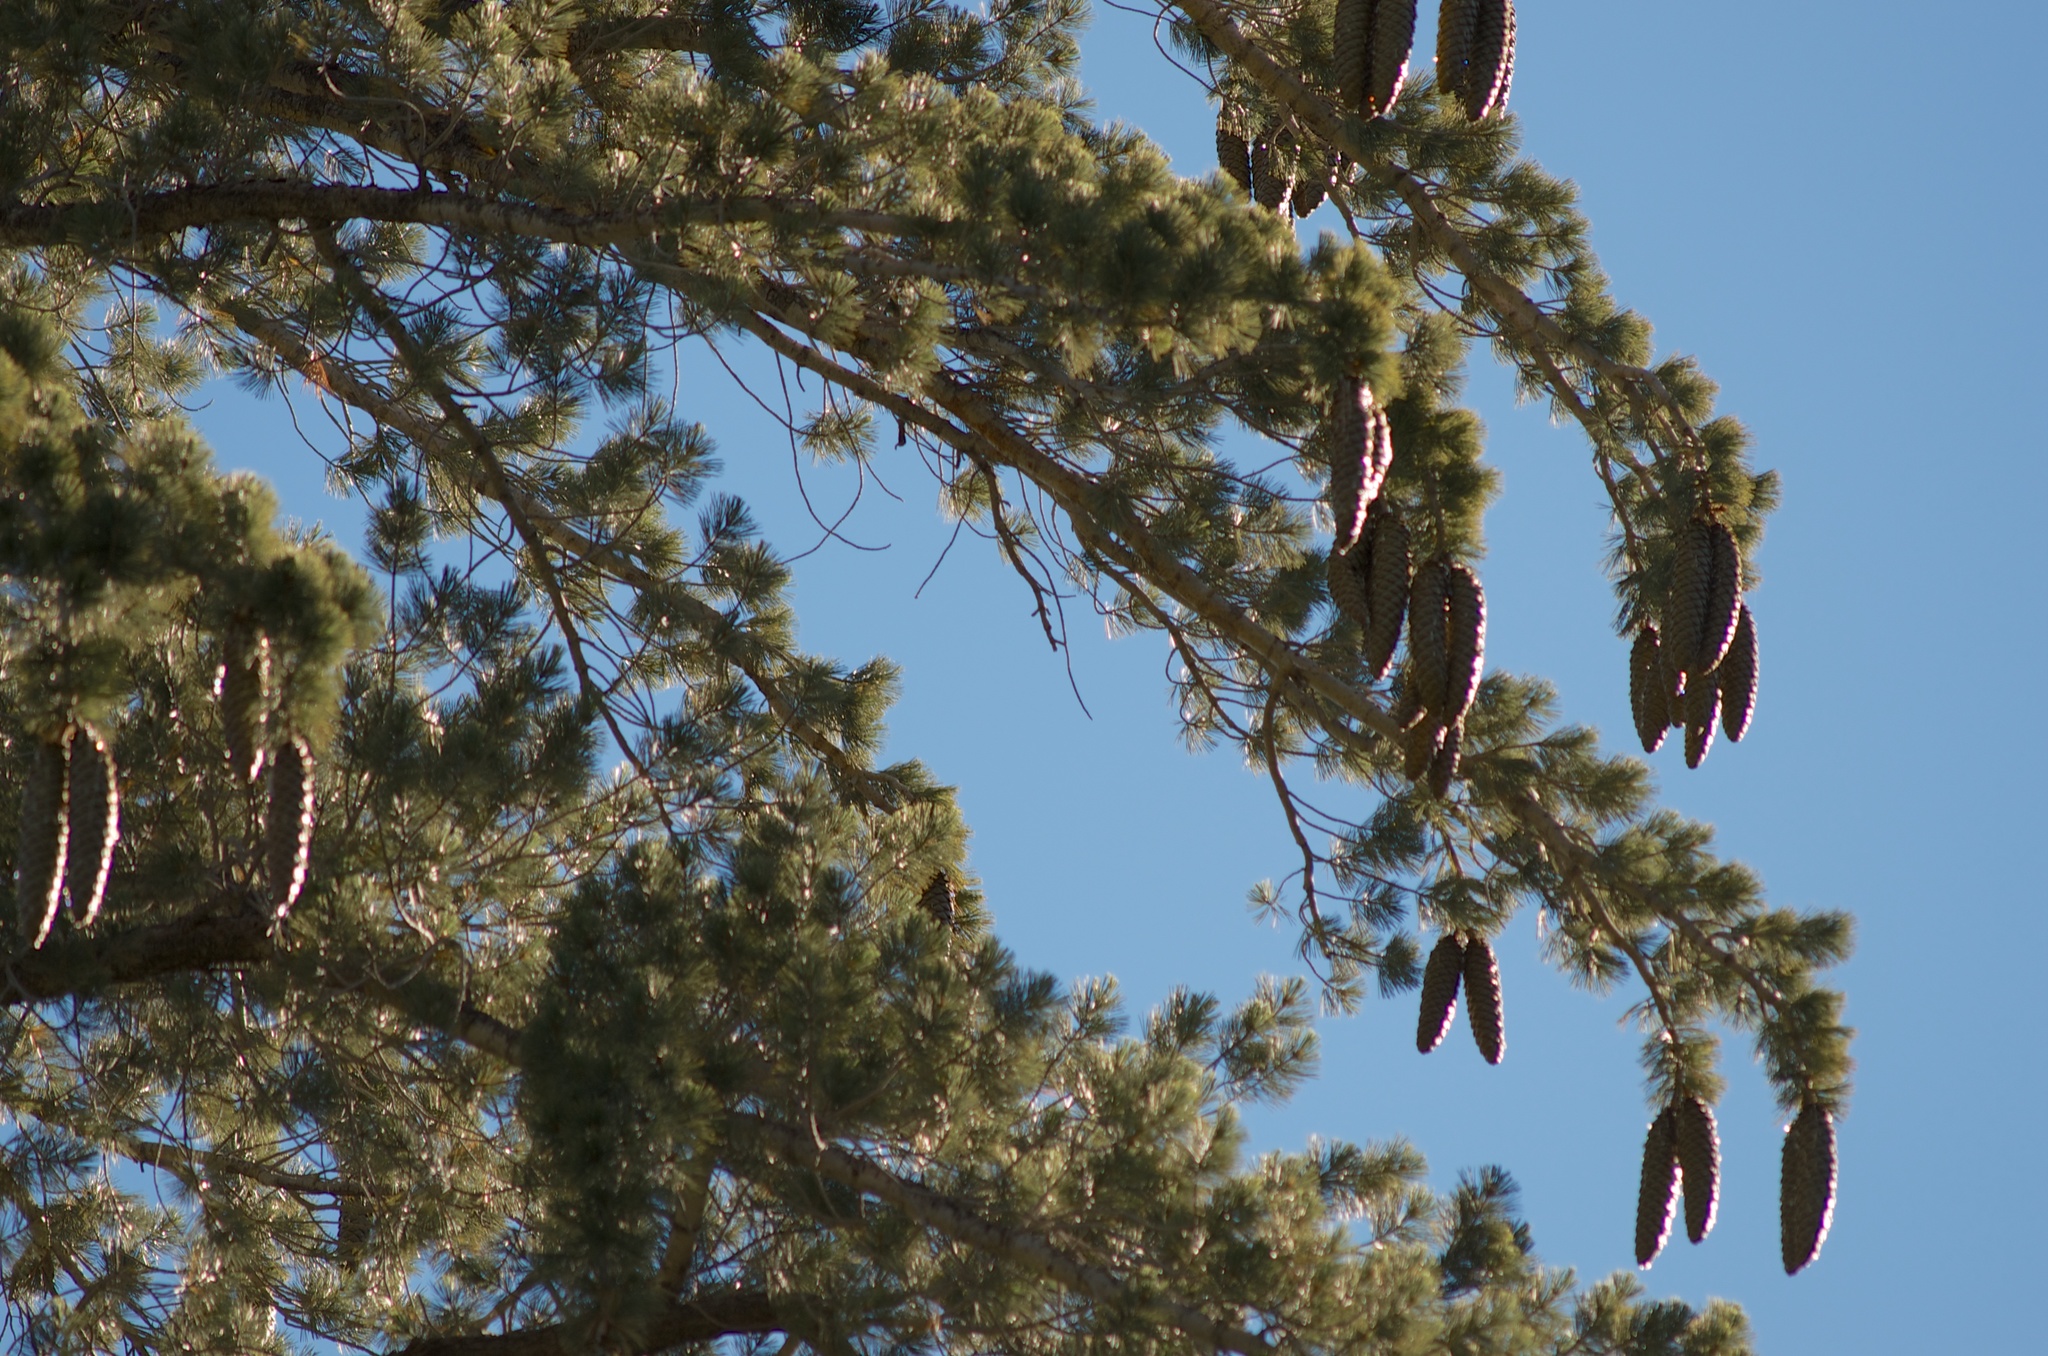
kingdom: Plantae
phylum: Tracheophyta
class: Pinopsida
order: Pinales
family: Pinaceae
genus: Pinus
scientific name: Pinus lambertiana
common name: Sugar pine
